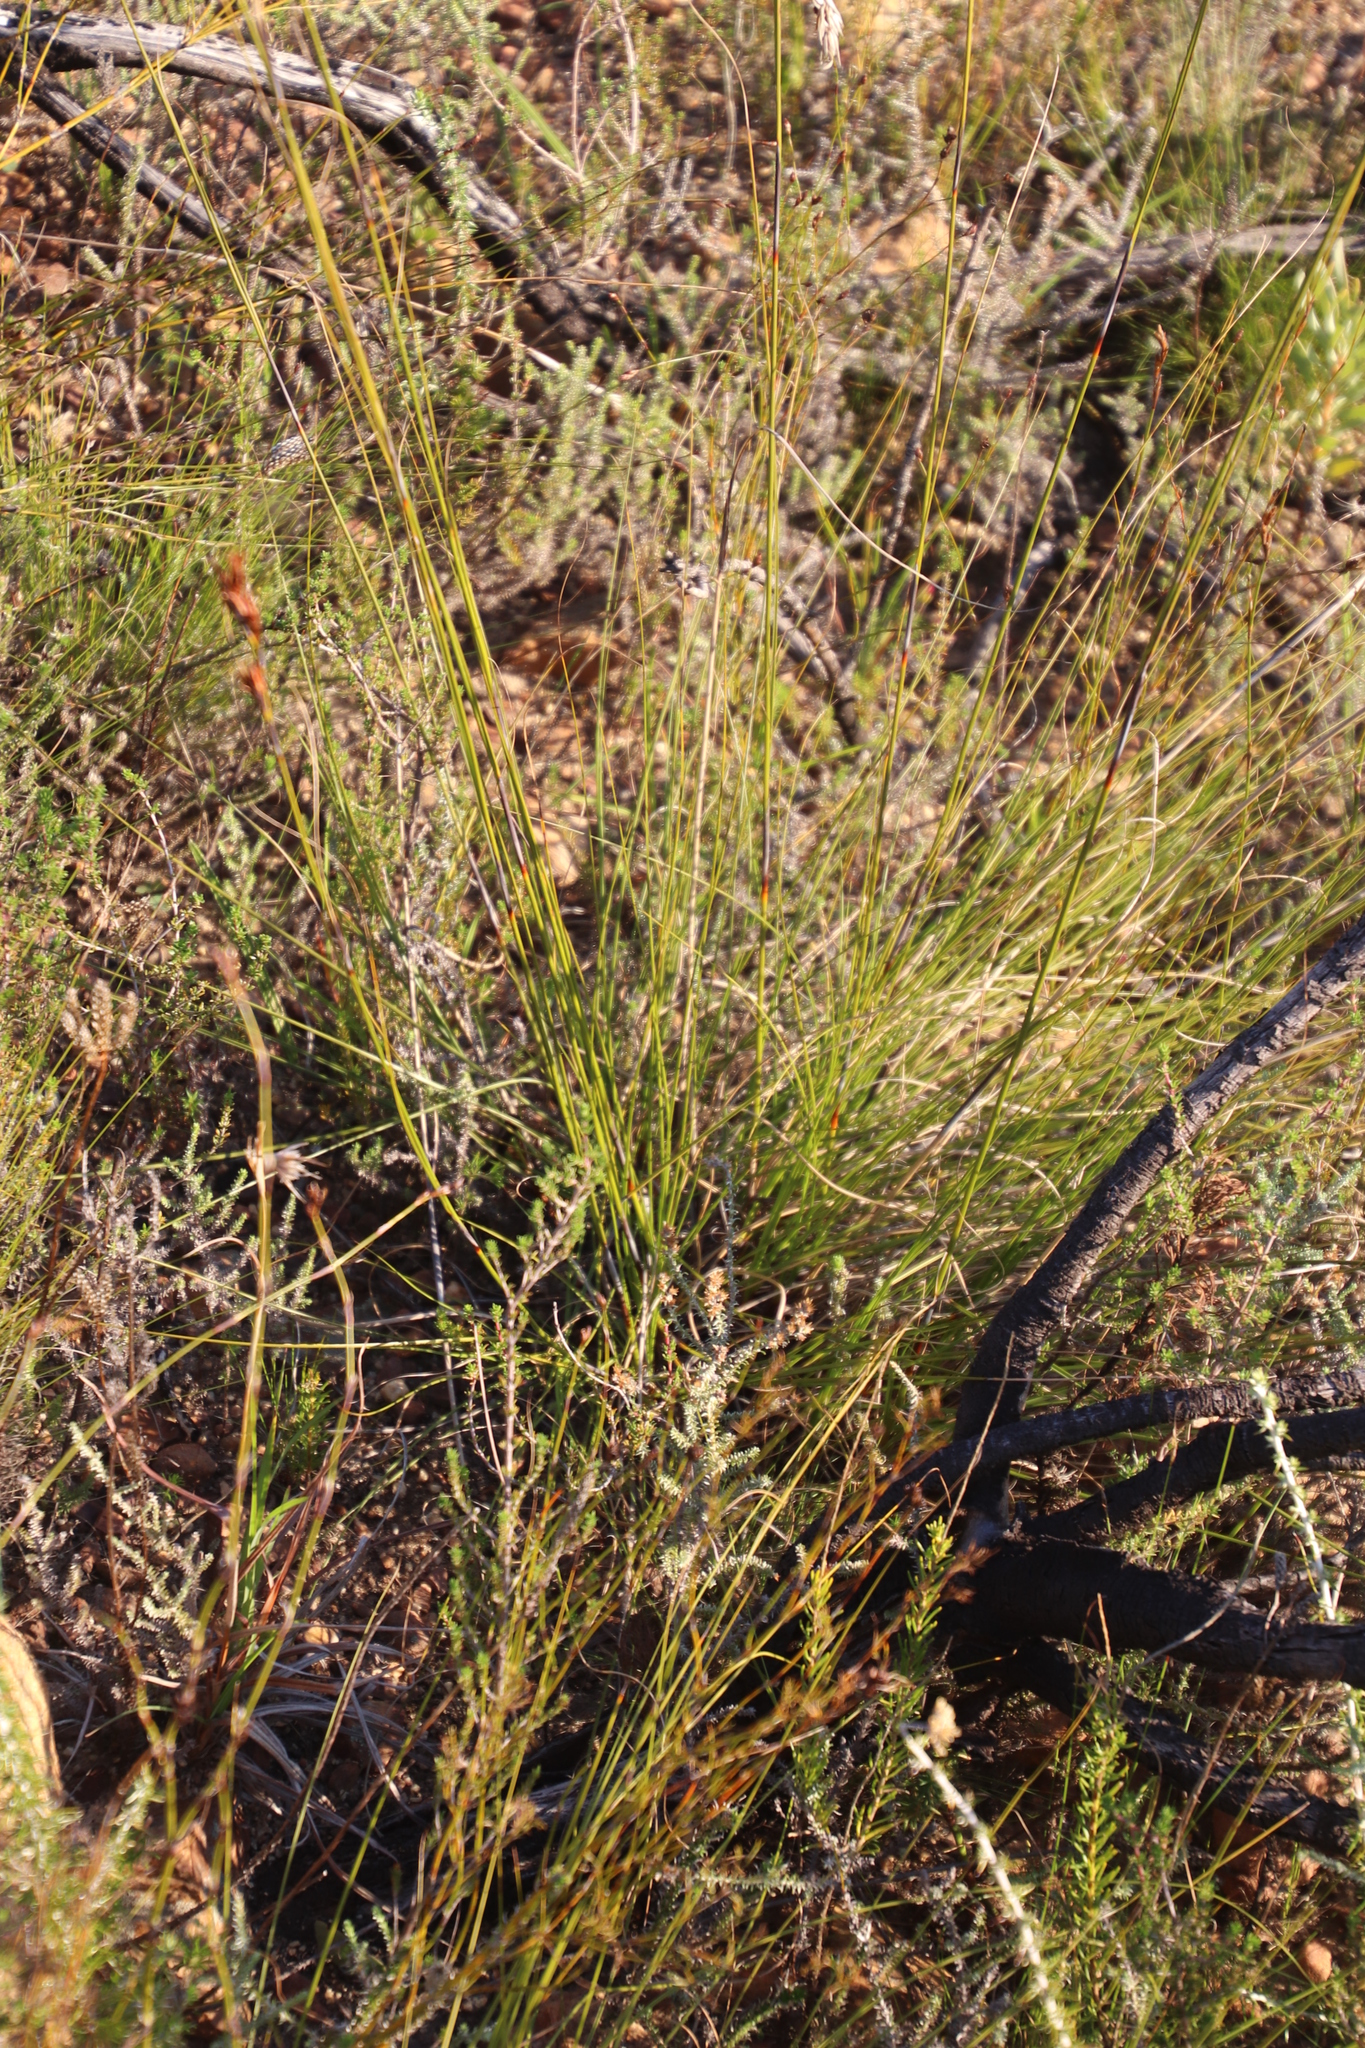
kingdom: Plantae
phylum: Tracheophyta
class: Liliopsida
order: Poales
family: Cyperaceae
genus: Tetraria
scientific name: Tetraria ustulata
